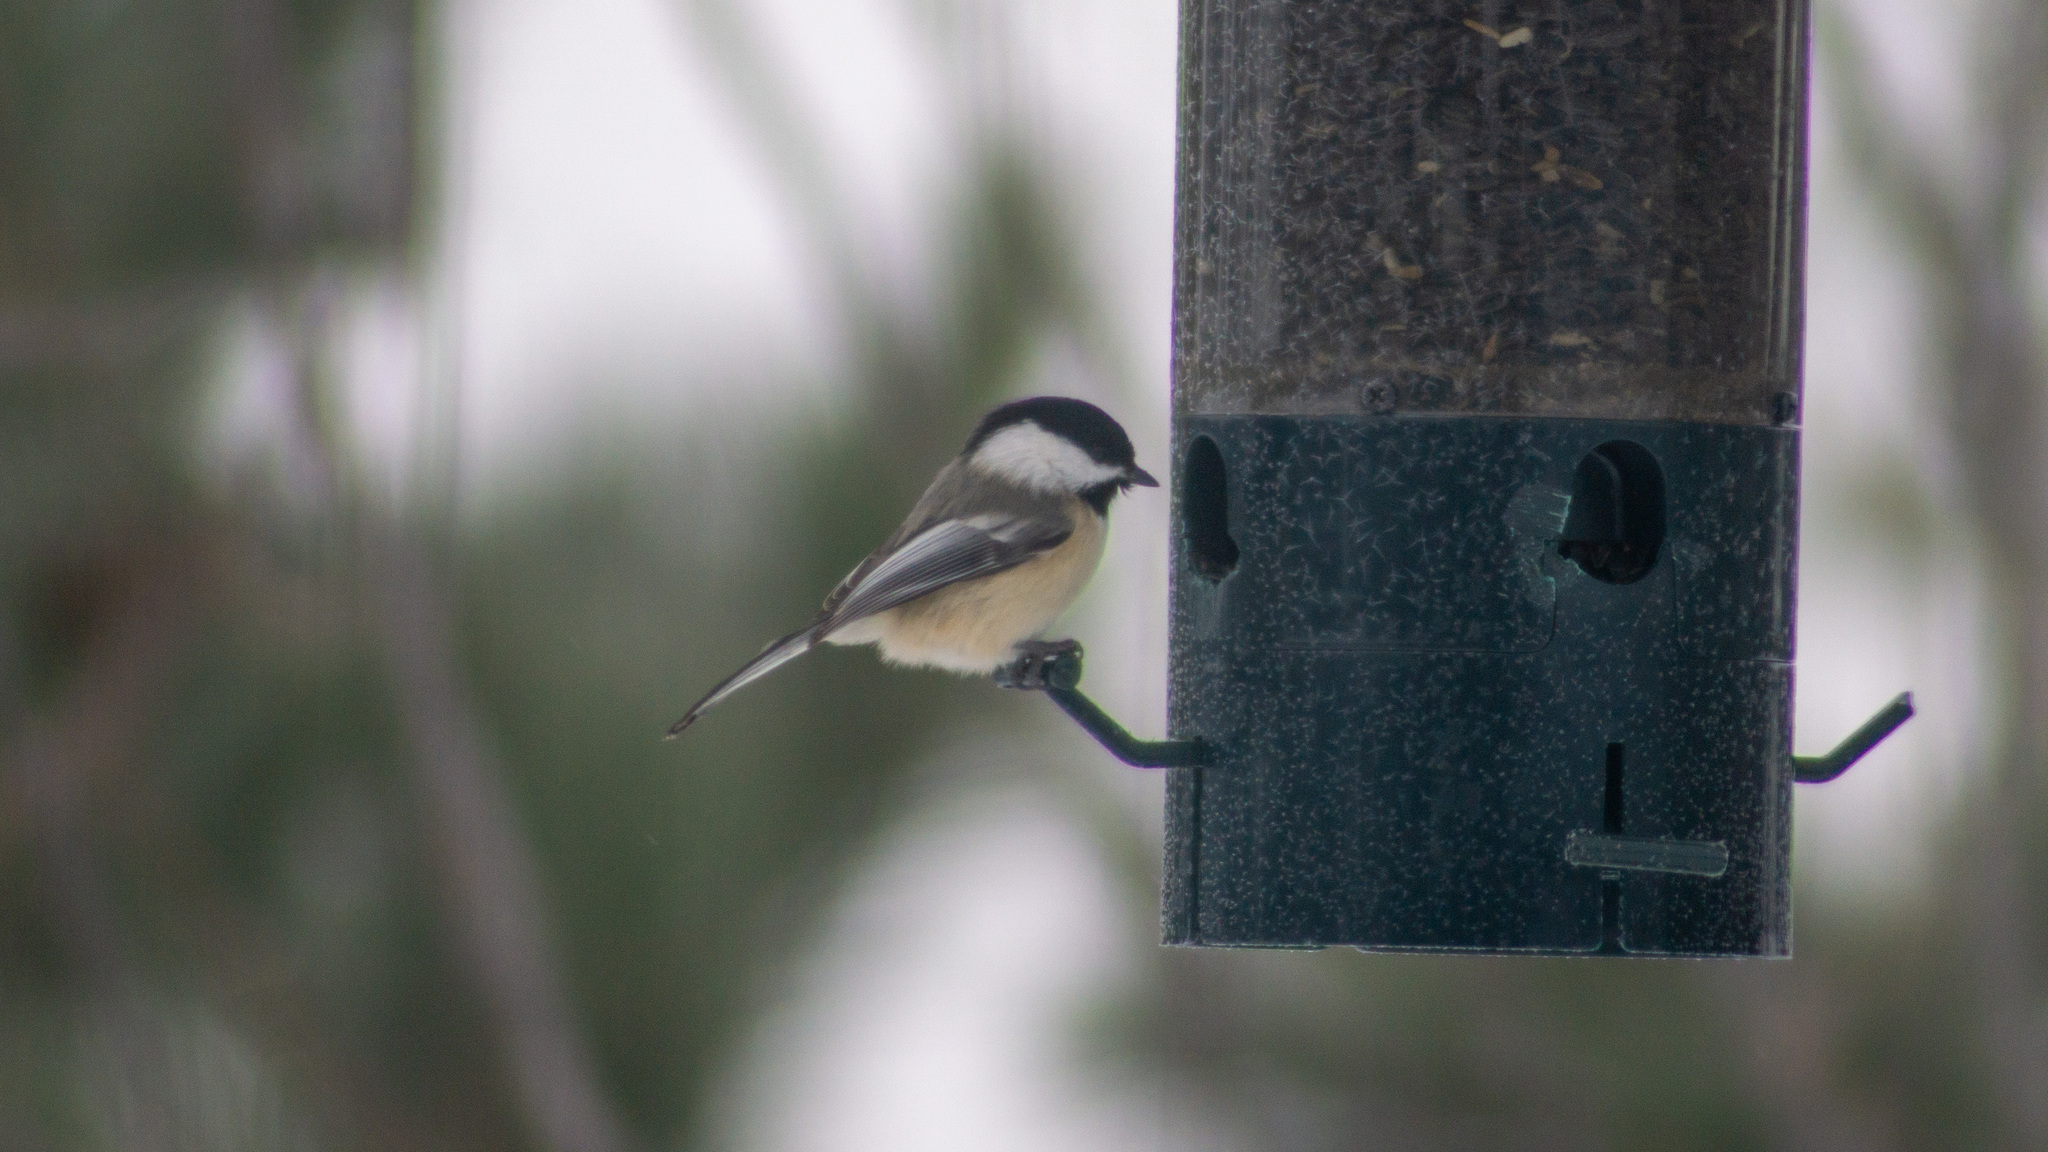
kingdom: Animalia
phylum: Chordata
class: Aves
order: Passeriformes
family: Paridae
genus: Poecile
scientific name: Poecile atricapillus
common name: Black-capped chickadee
